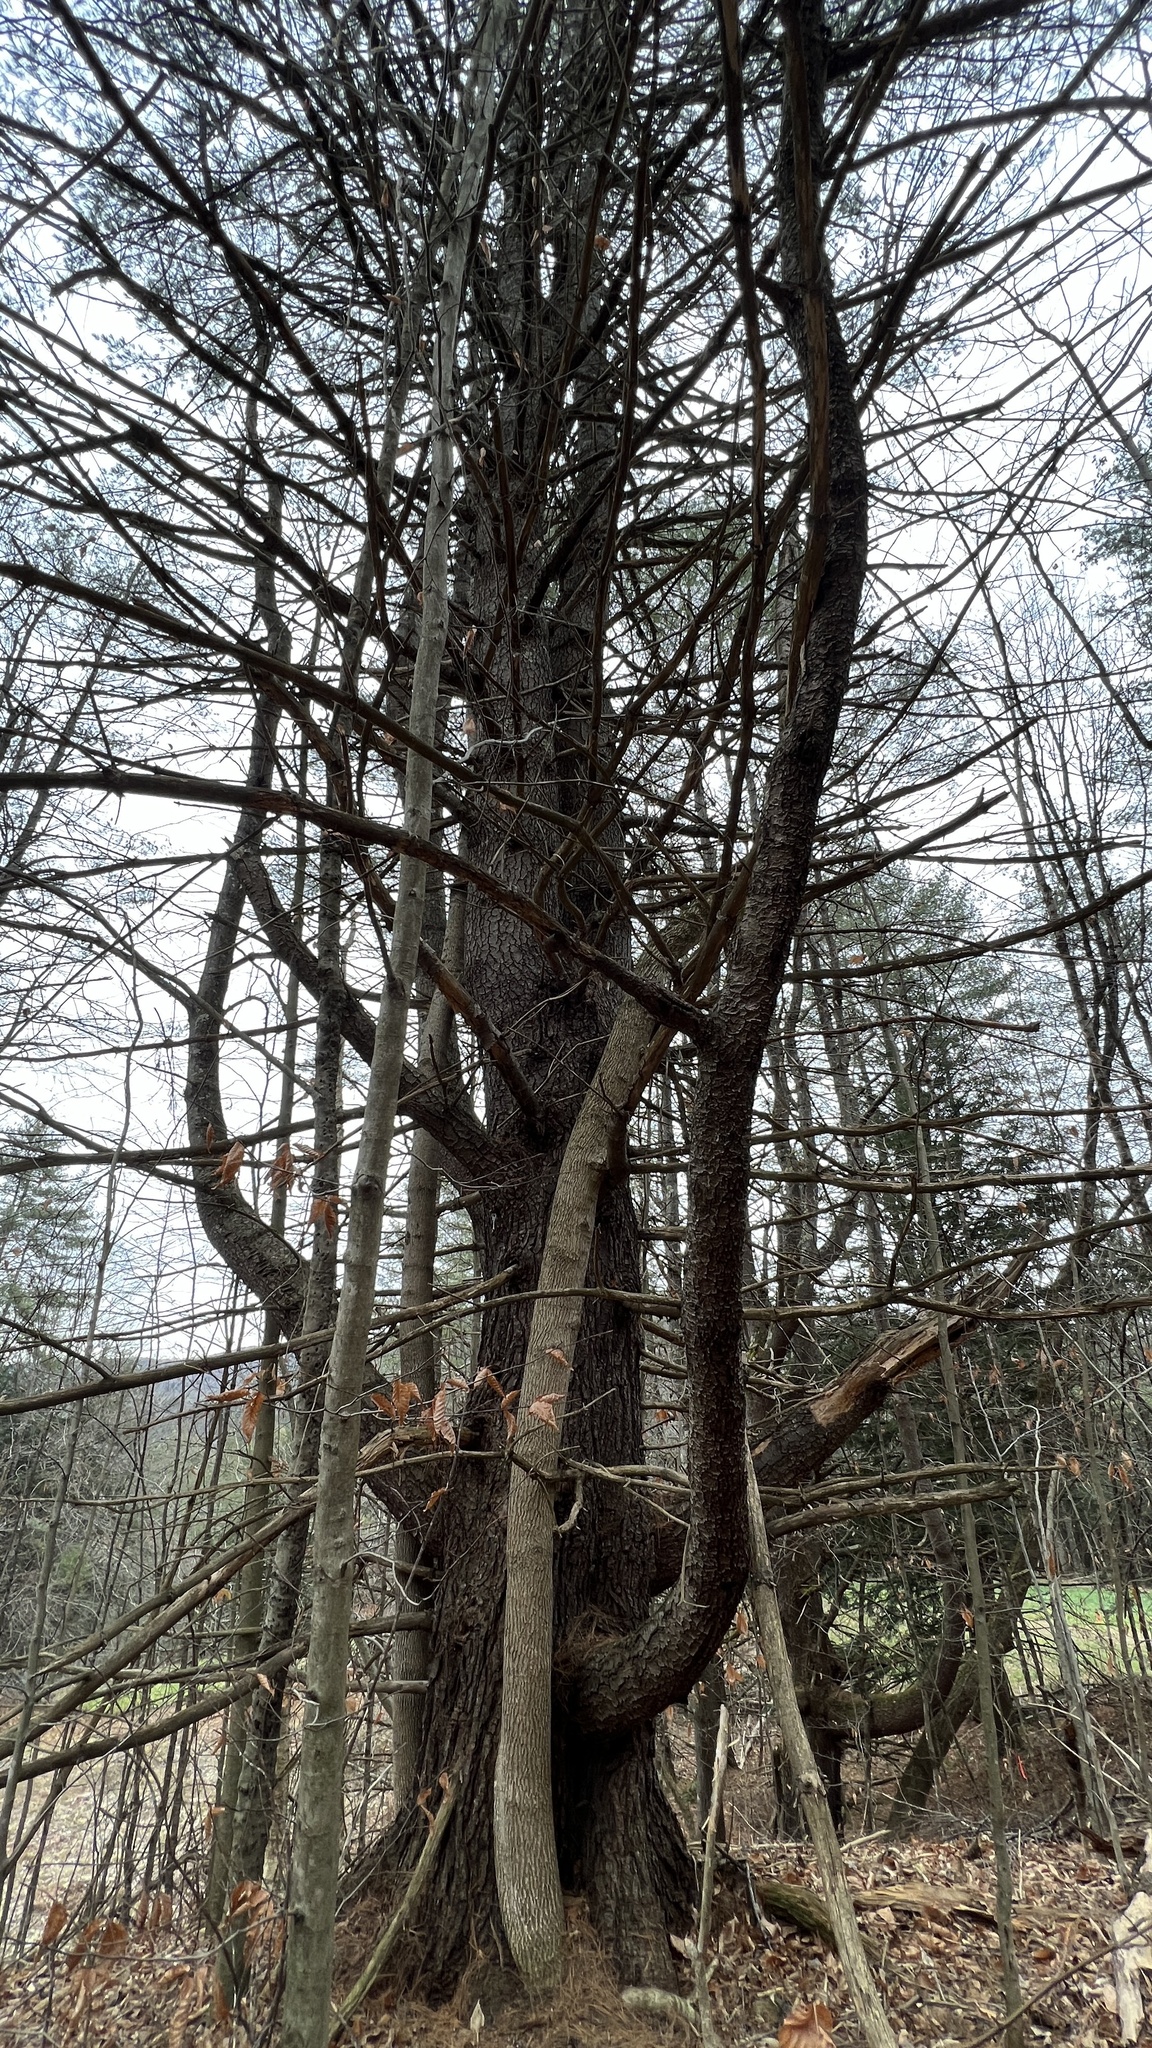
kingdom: Plantae
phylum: Tracheophyta
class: Pinopsida
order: Pinales
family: Pinaceae
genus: Pinus
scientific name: Pinus strobus
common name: Weymouth pine
